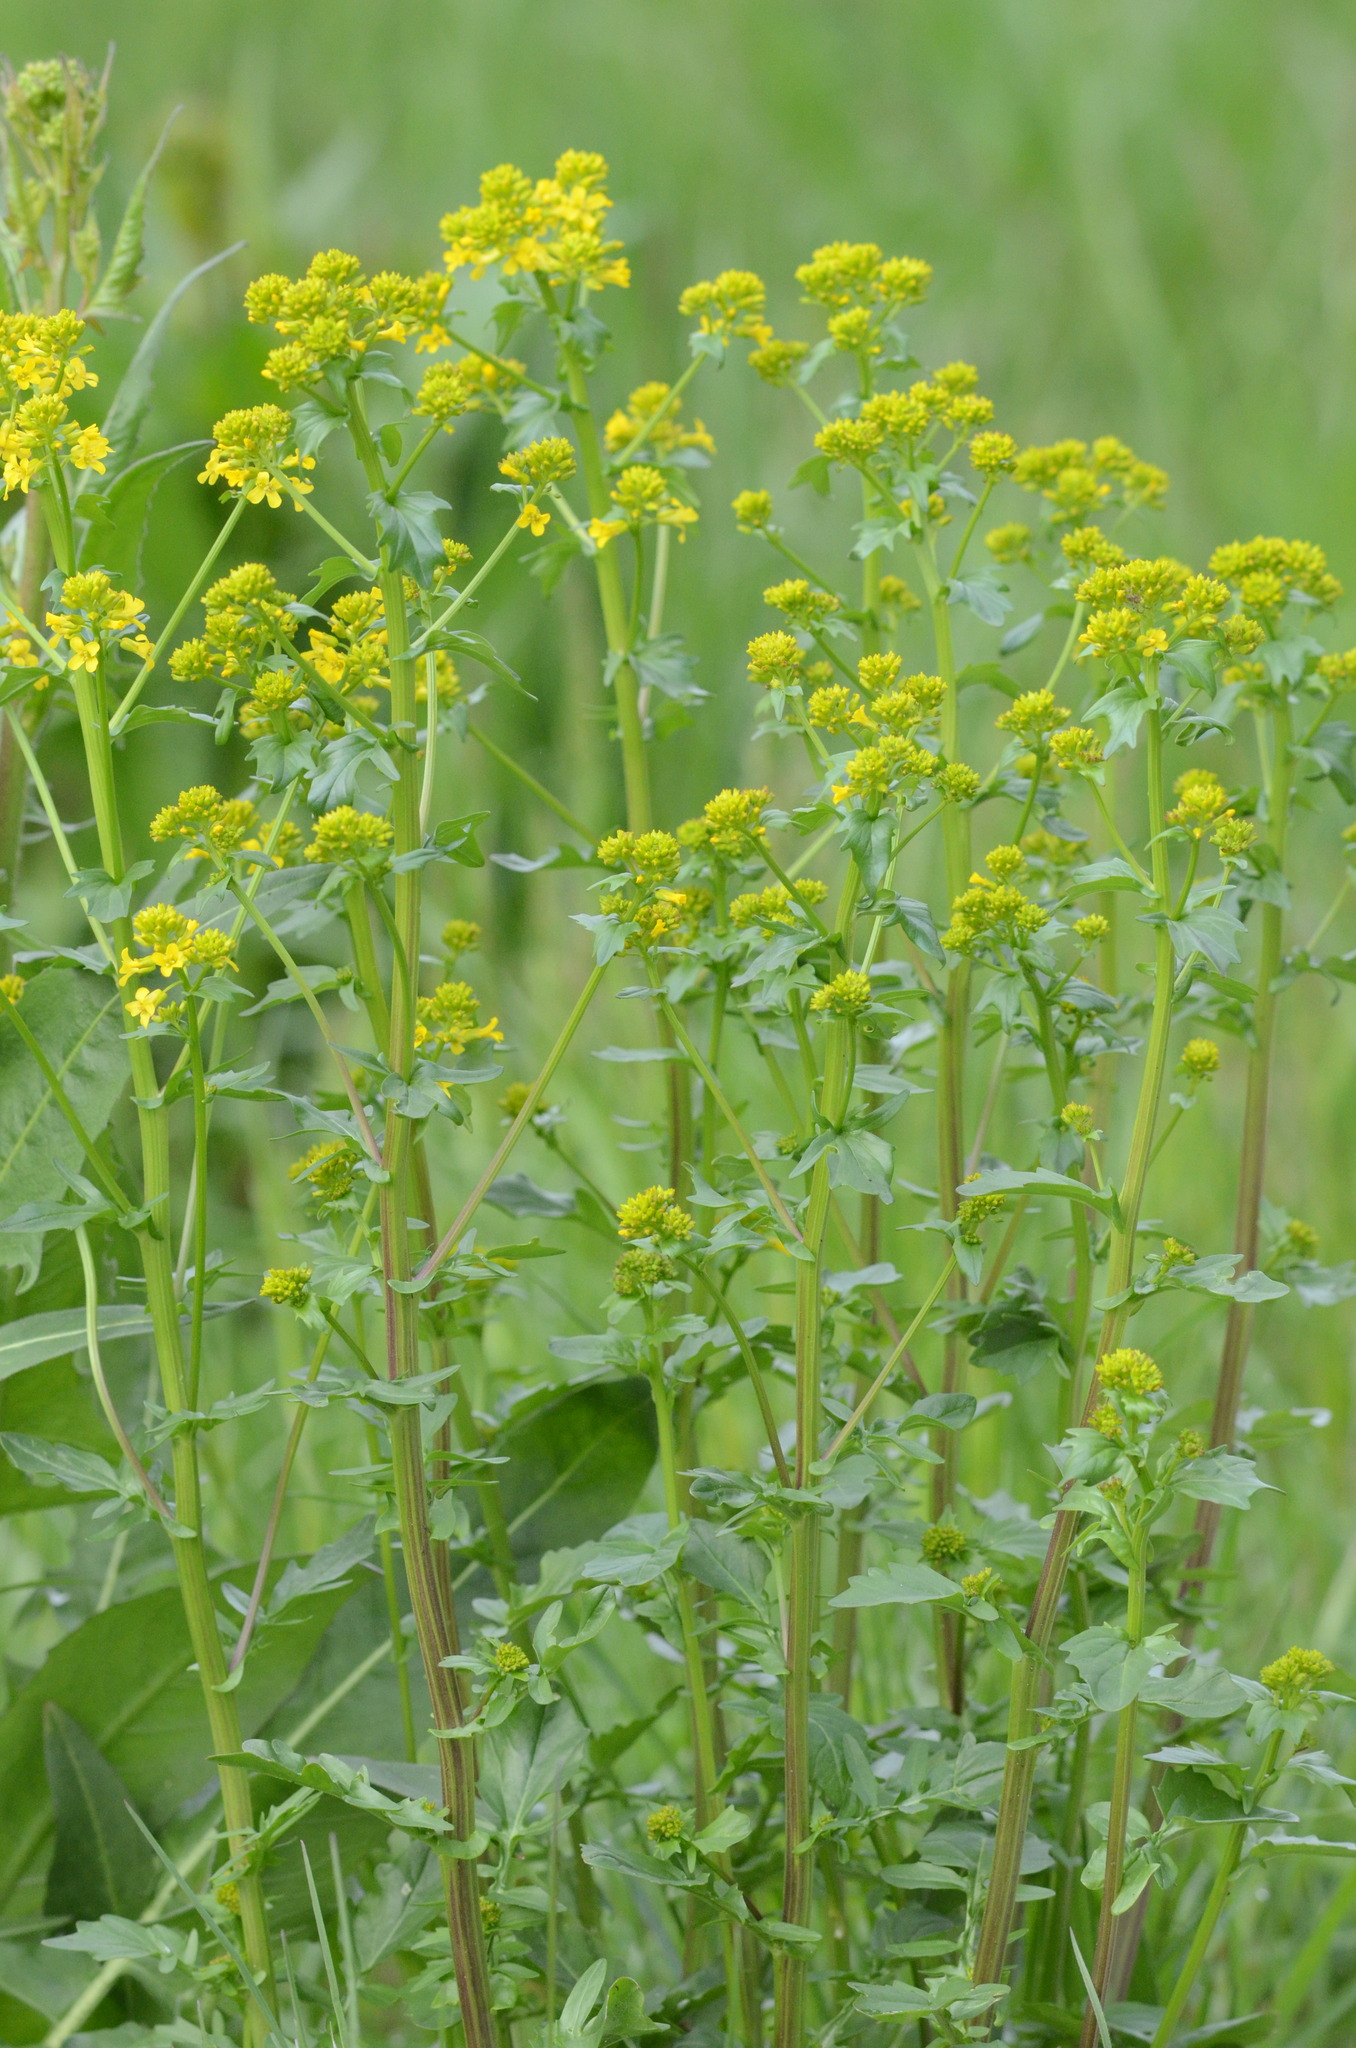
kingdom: Plantae
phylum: Tracheophyta
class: Magnoliopsida
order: Brassicales
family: Brassicaceae
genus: Barbarea
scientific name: Barbarea vulgaris
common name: Cressy-greens
